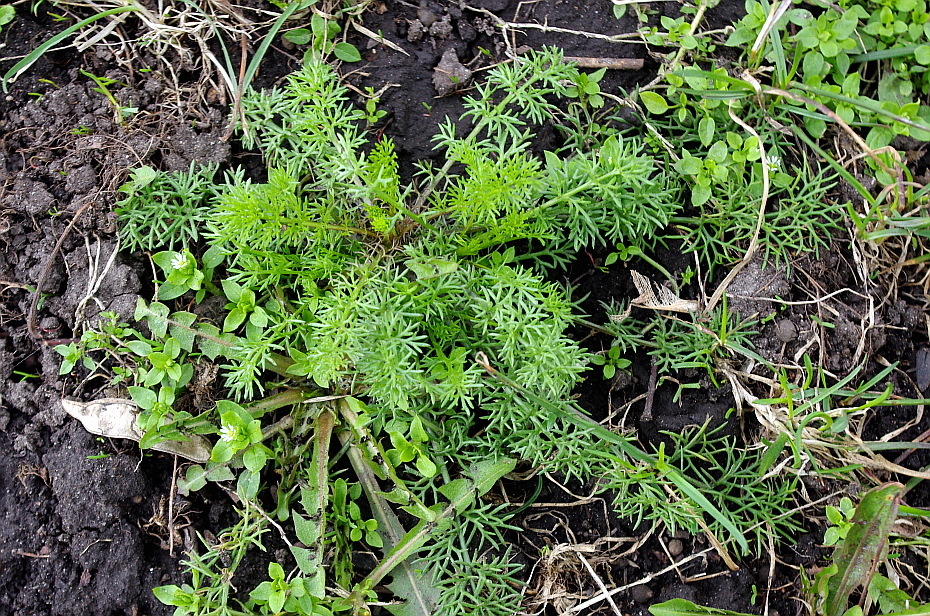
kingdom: Plantae
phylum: Tracheophyta
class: Magnoliopsida
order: Asterales
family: Asteraceae
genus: Tripleurospermum
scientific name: Tripleurospermum inodorum
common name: Scentless mayweed
